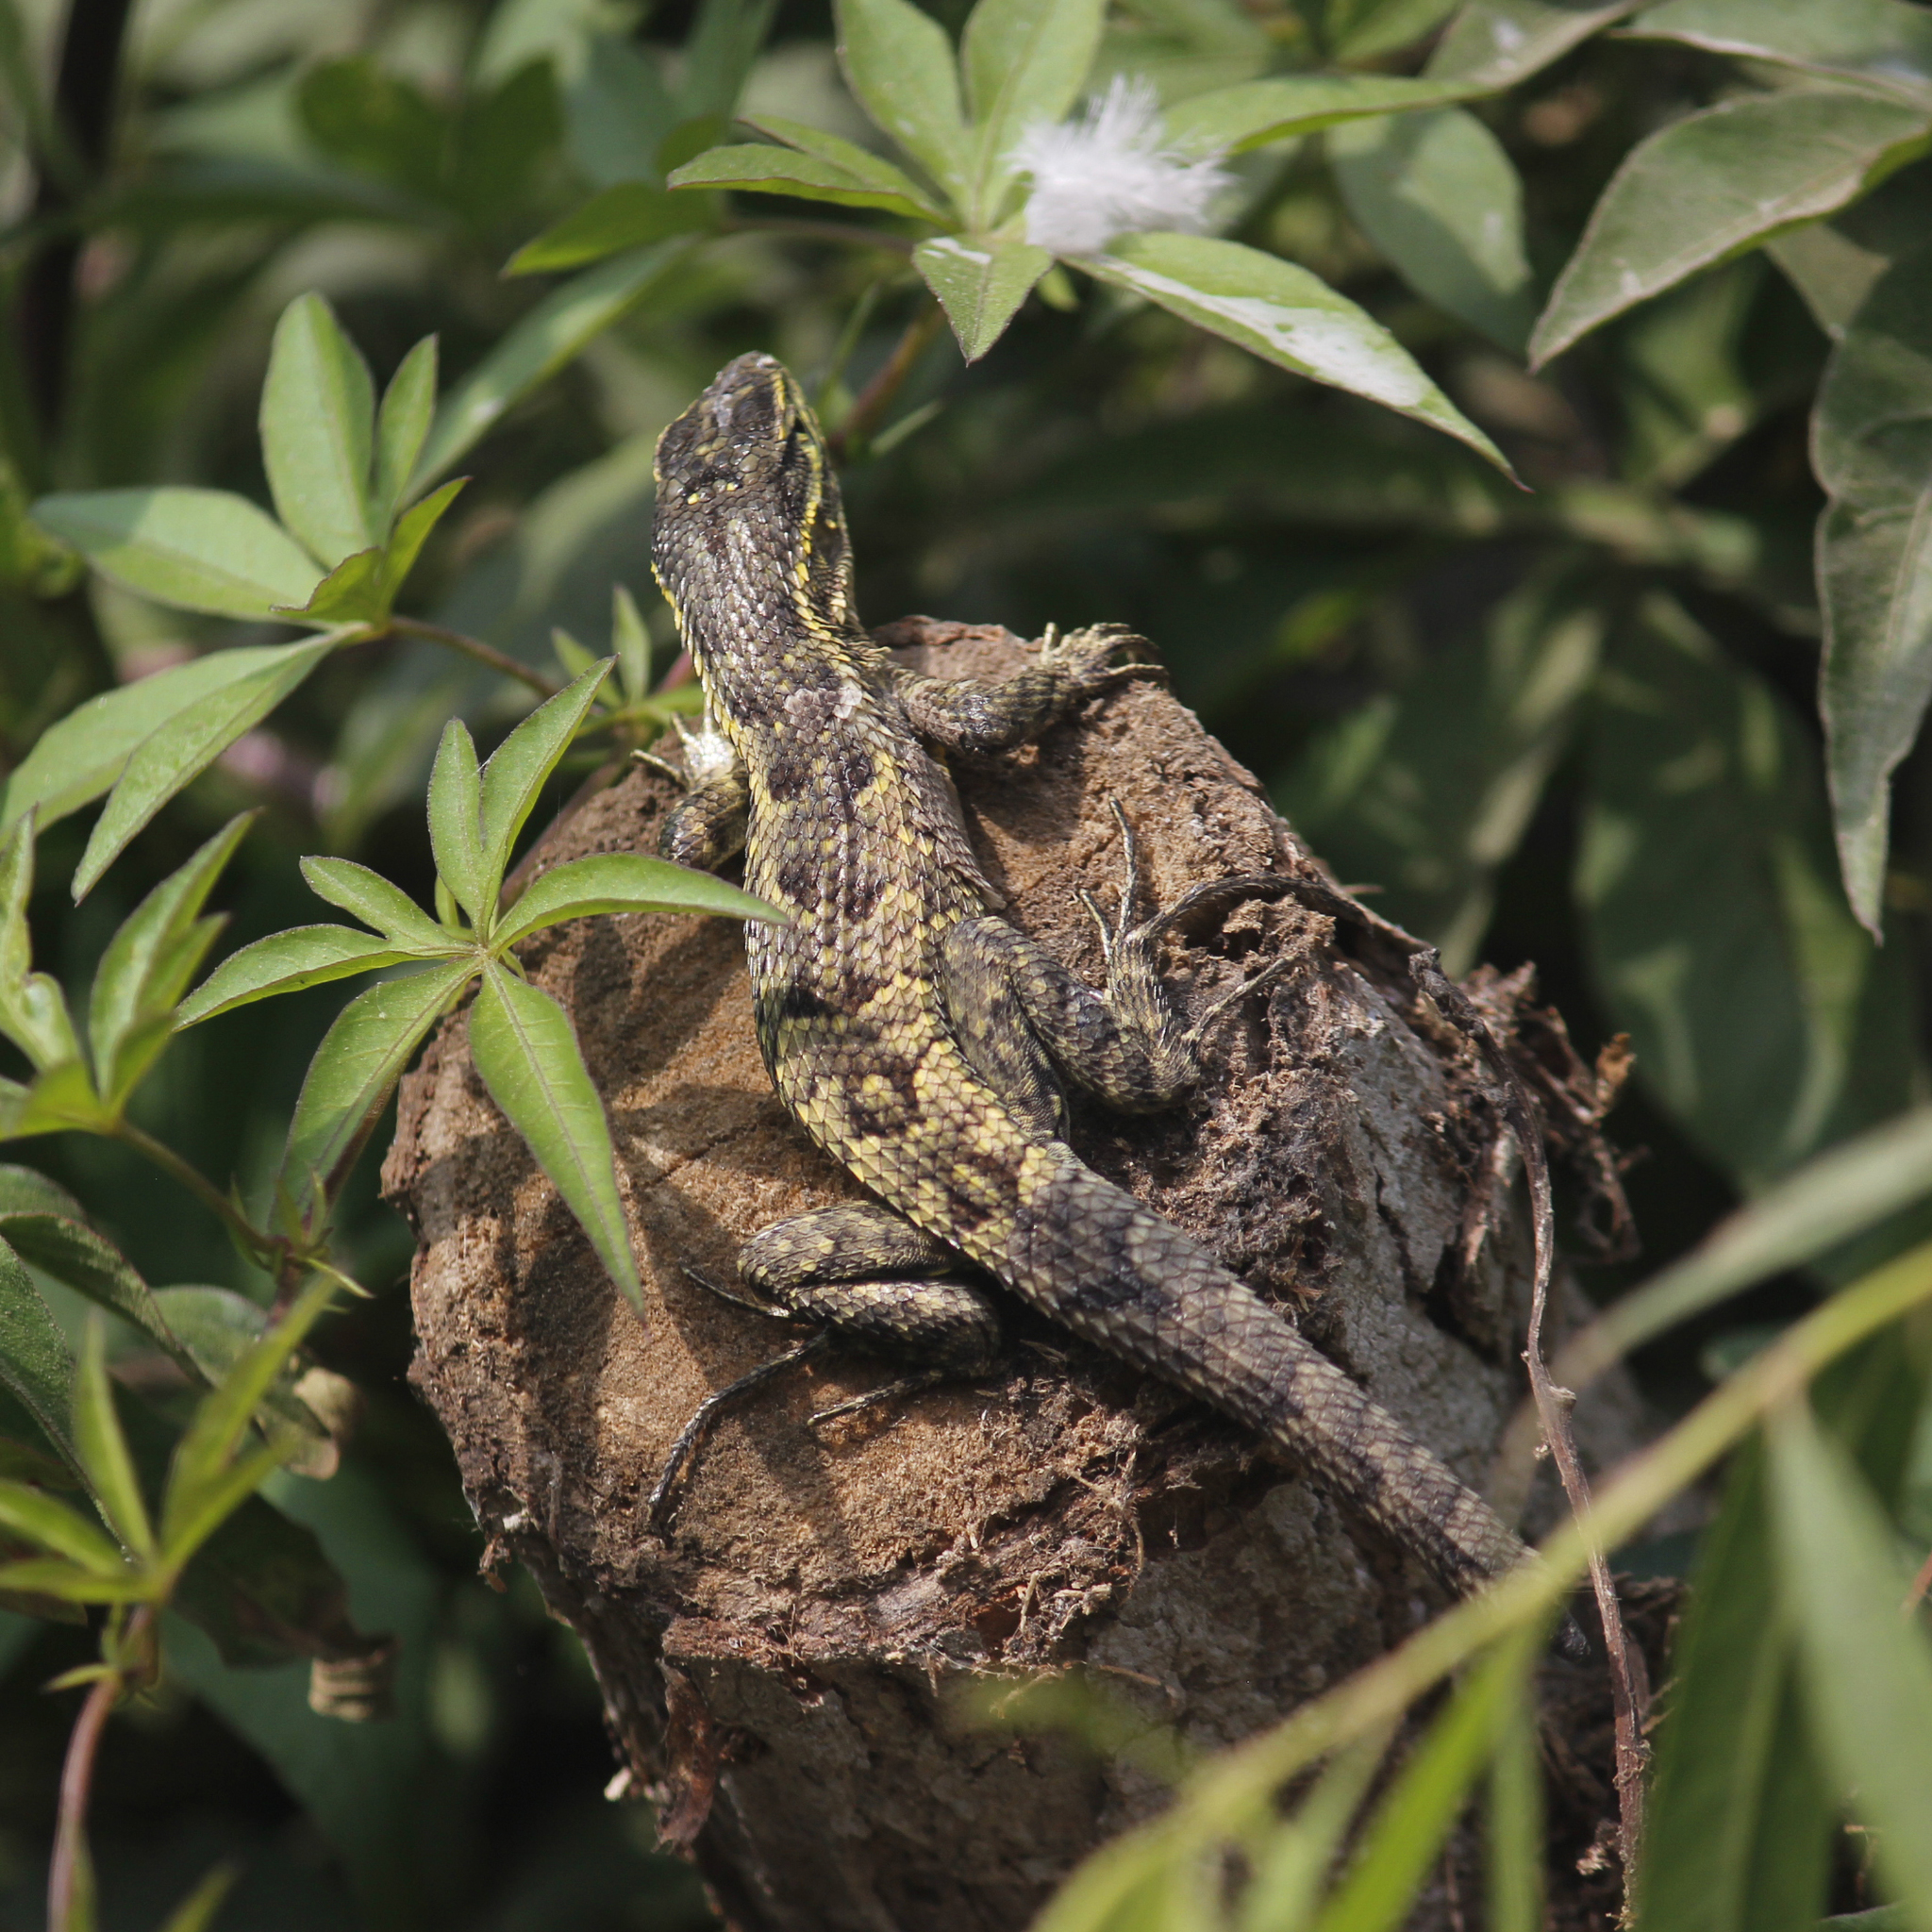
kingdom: Animalia
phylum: Chordata
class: Squamata
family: Tropiduridae
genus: Stenocercus
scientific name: Stenocercus modestus
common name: Modest whorltail iguana
